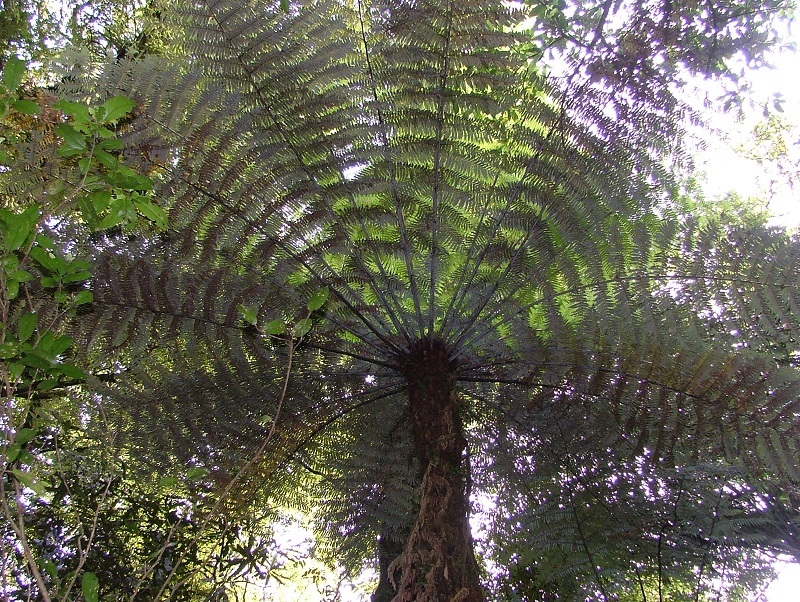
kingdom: Plantae
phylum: Tracheophyta
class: Polypodiopsida
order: Cyatheales
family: Cyatheaceae
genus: Alsophila
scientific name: Alsophila dealbata
